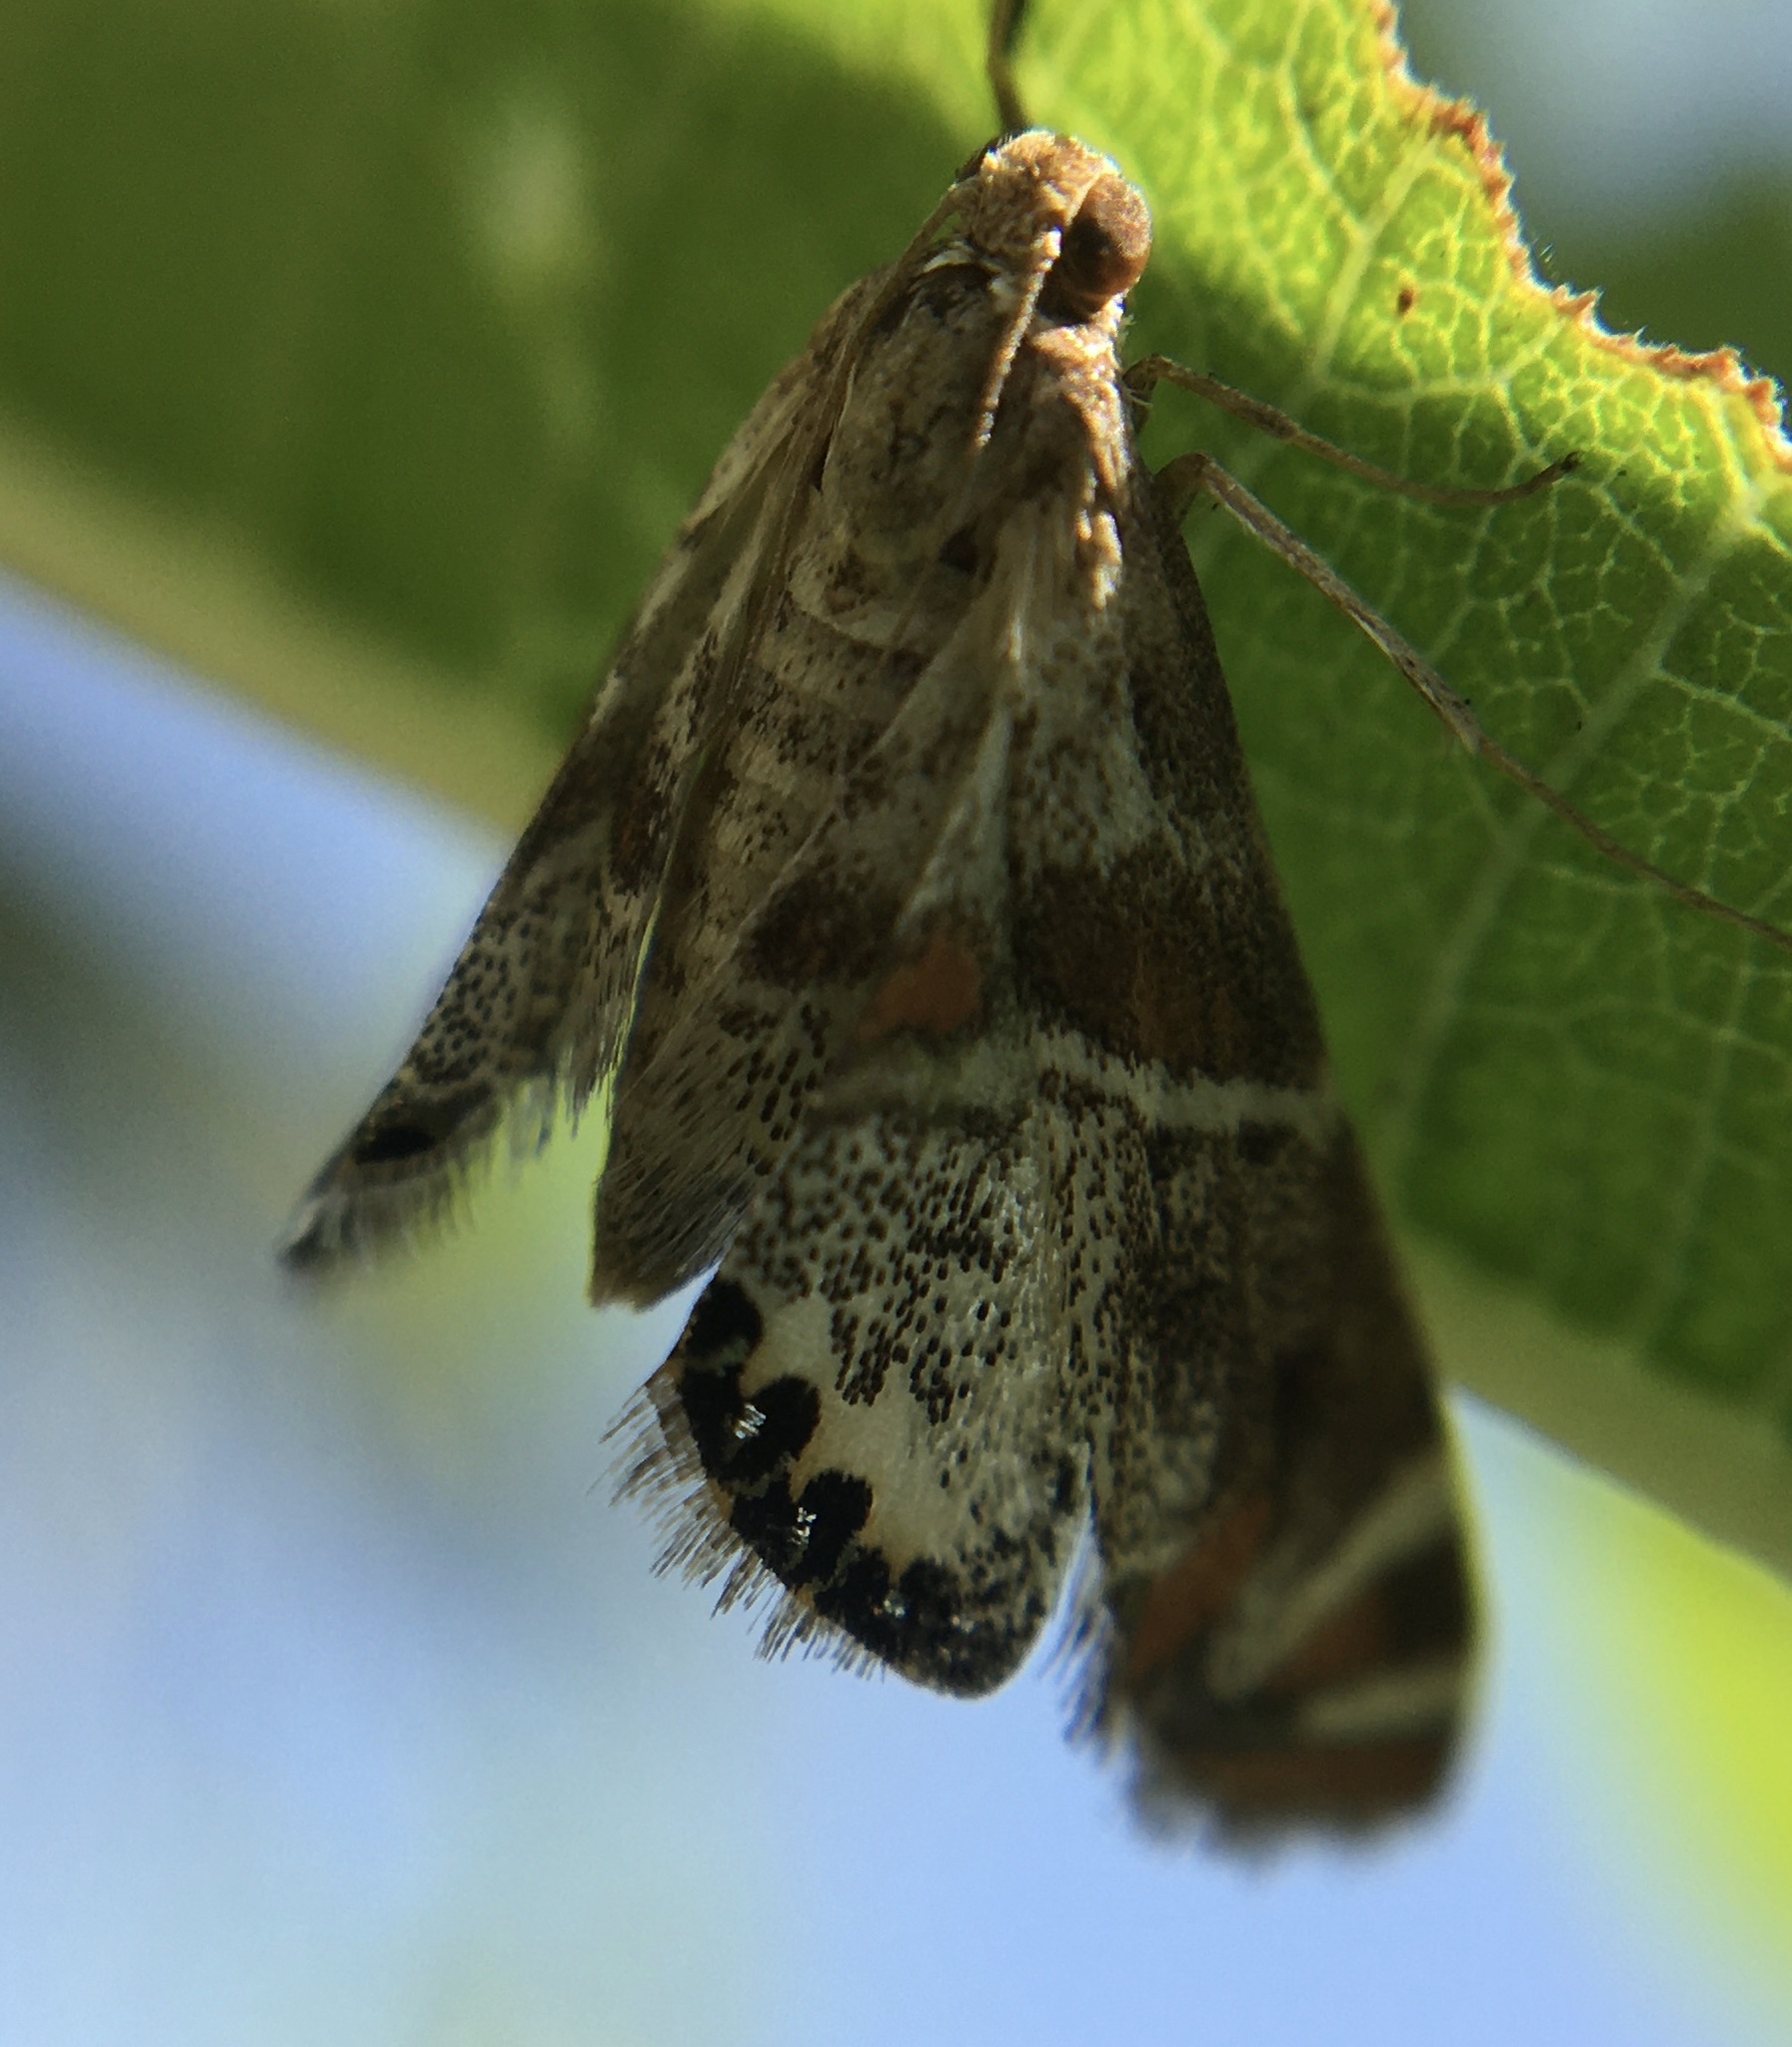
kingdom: Animalia
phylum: Arthropoda
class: Insecta
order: Lepidoptera
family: Crambidae
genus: Petrophila
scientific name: Petrophila jaliscalis
